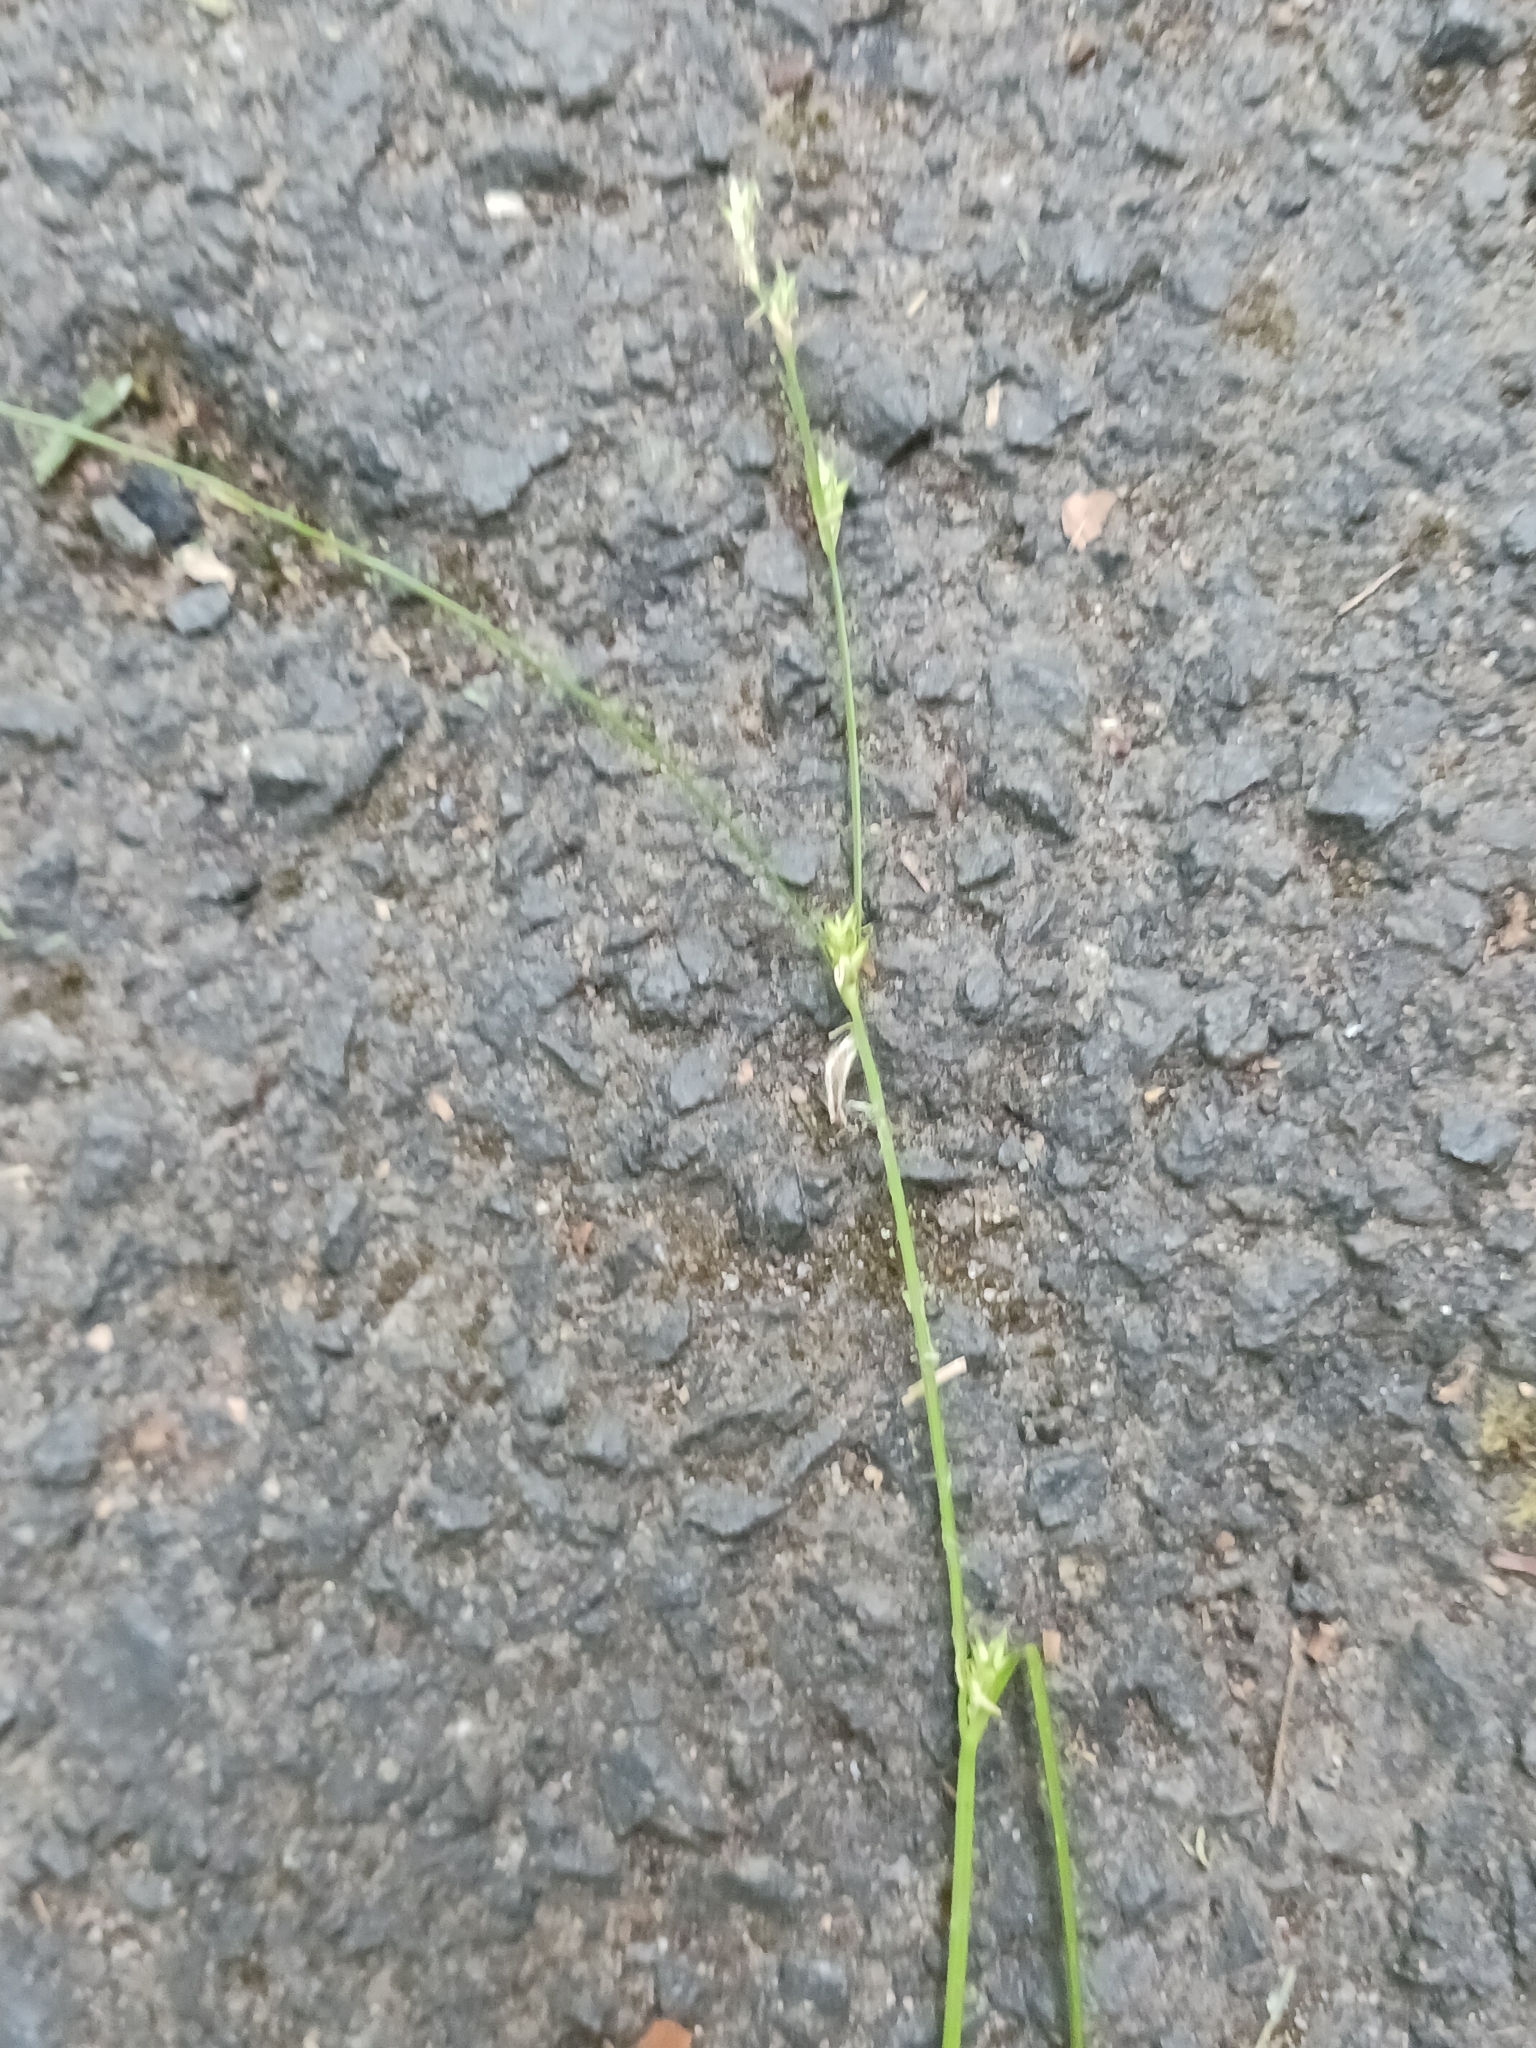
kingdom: Plantae
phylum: Tracheophyta
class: Liliopsida
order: Poales
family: Cyperaceae
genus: Carex
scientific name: Carex remota
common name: Remote sedge
